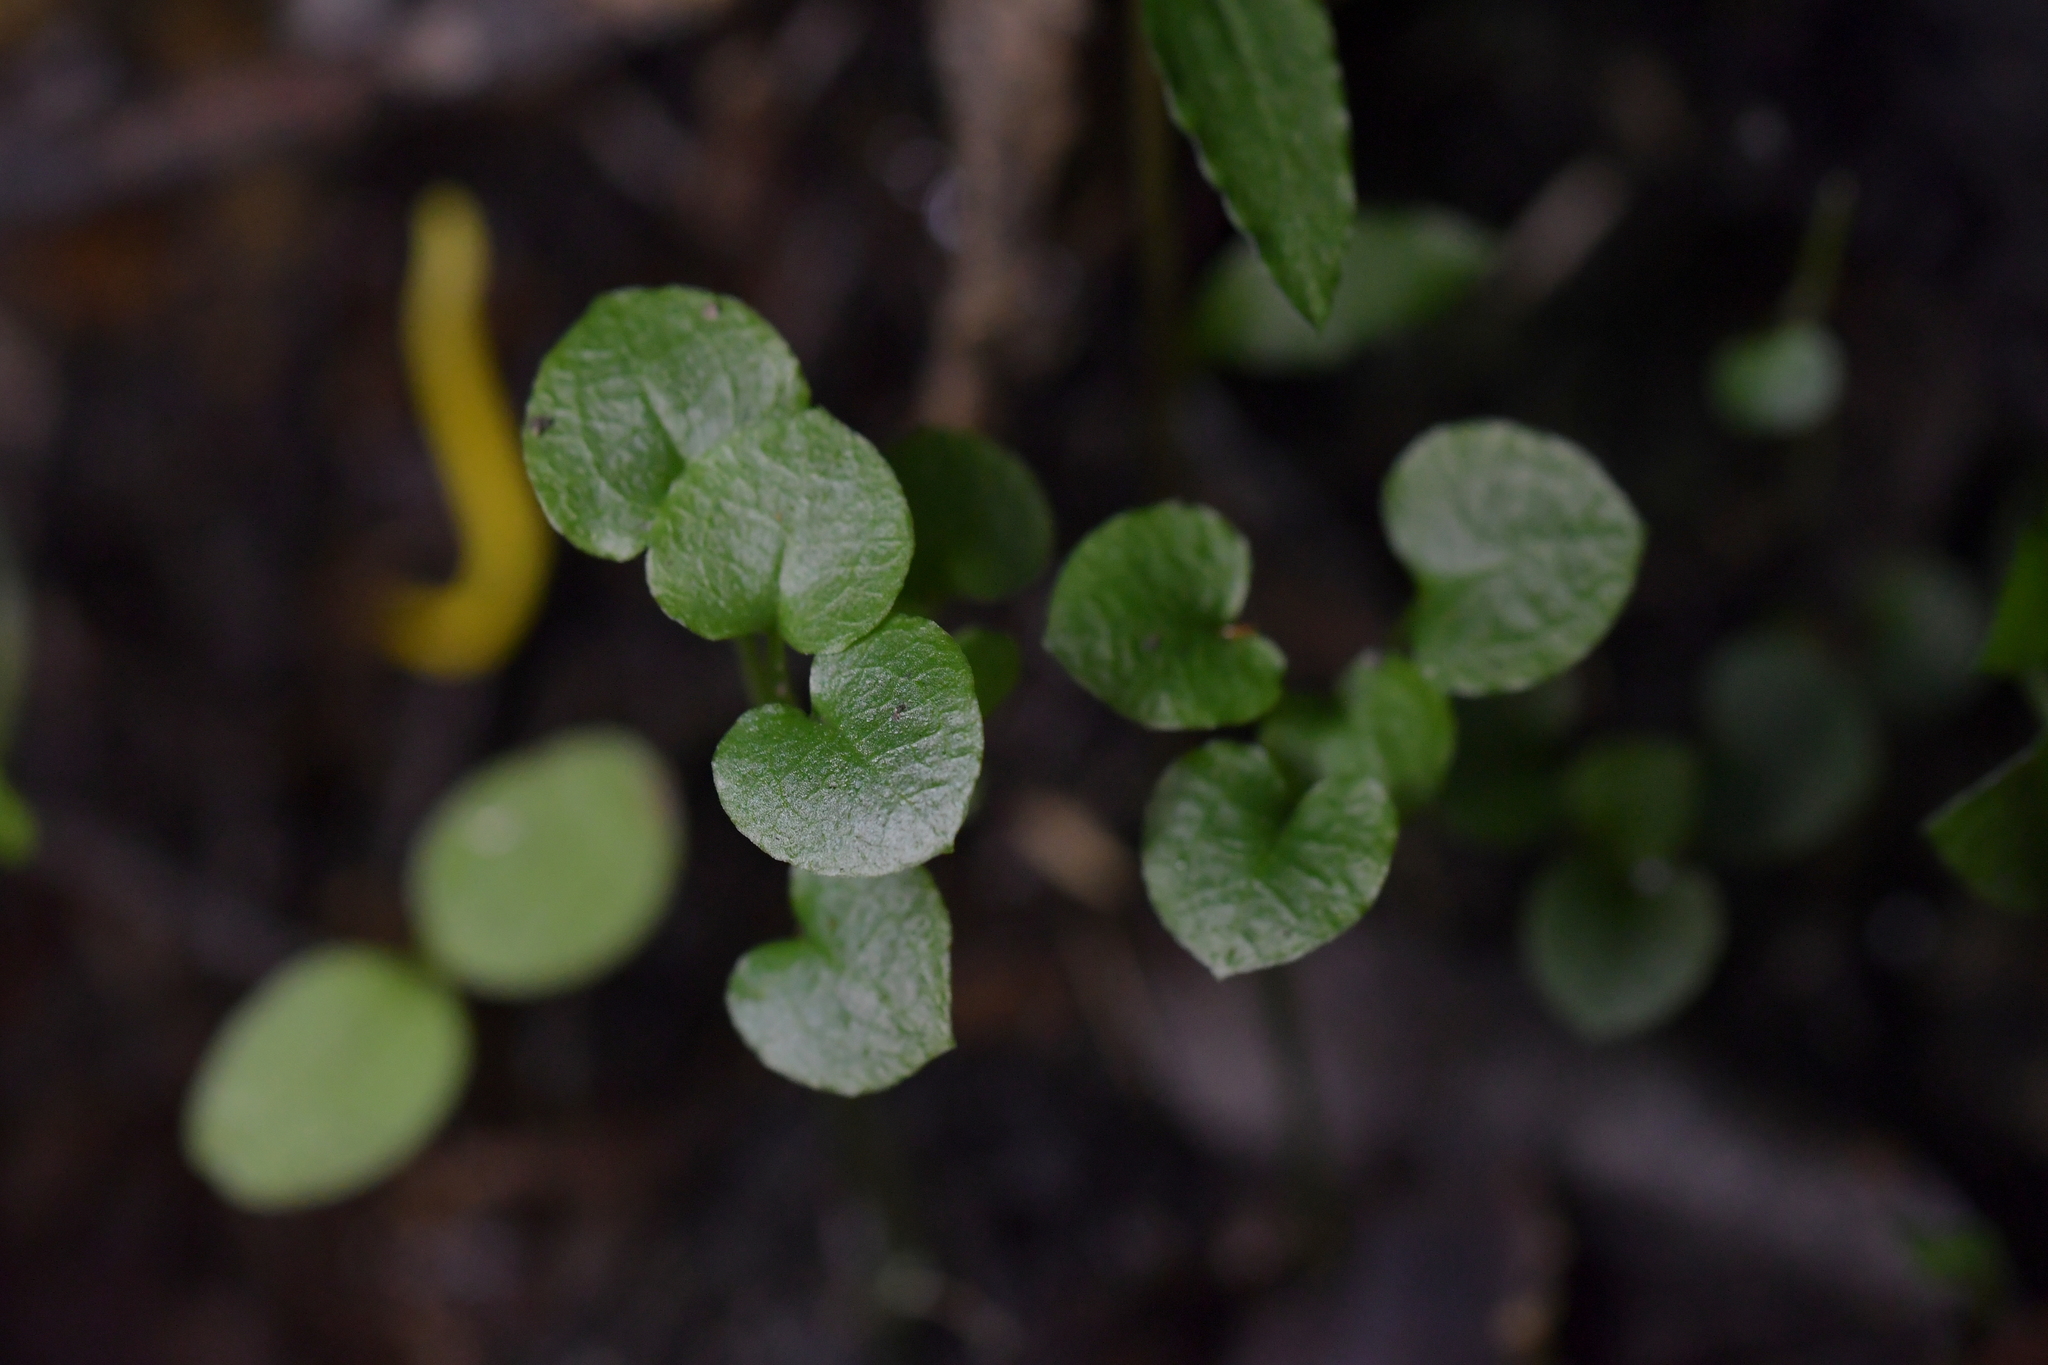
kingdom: Plantae
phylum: Tracheophyta
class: Liliopsida
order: Asparagales
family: Orchidaceae
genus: Pterostylis
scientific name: Pterostylis alobula
